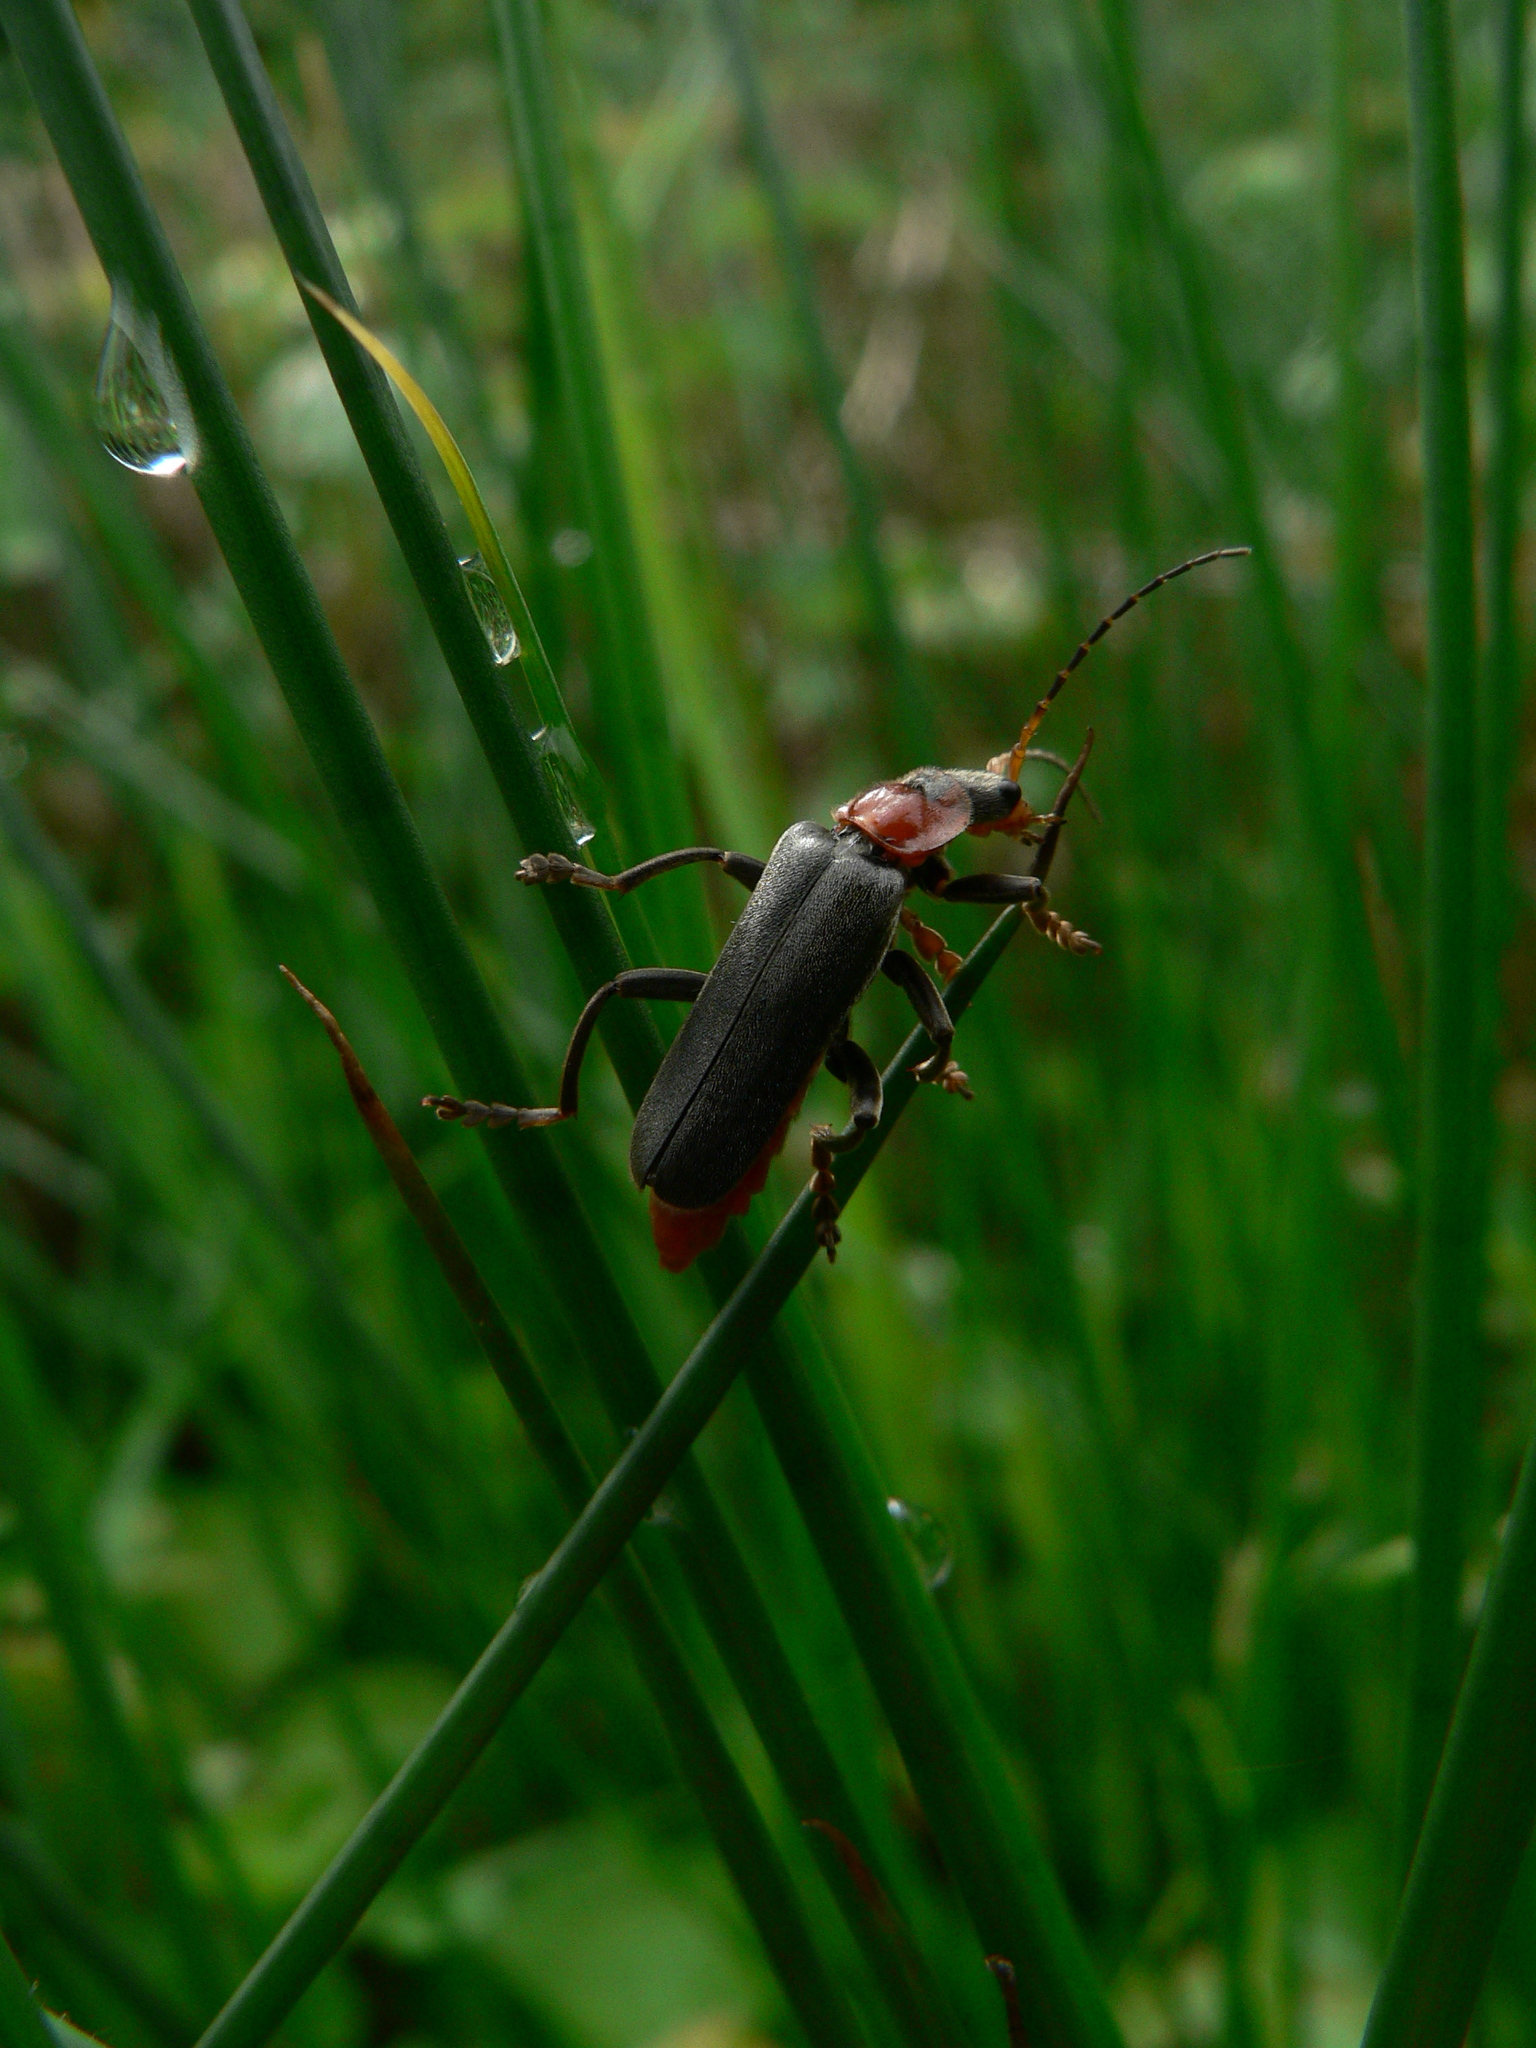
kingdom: Animalia
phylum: Arthropoda
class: Insecta
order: Coleoptera
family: Cantharidae
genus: Cantharis
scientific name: Cantharis fusca
